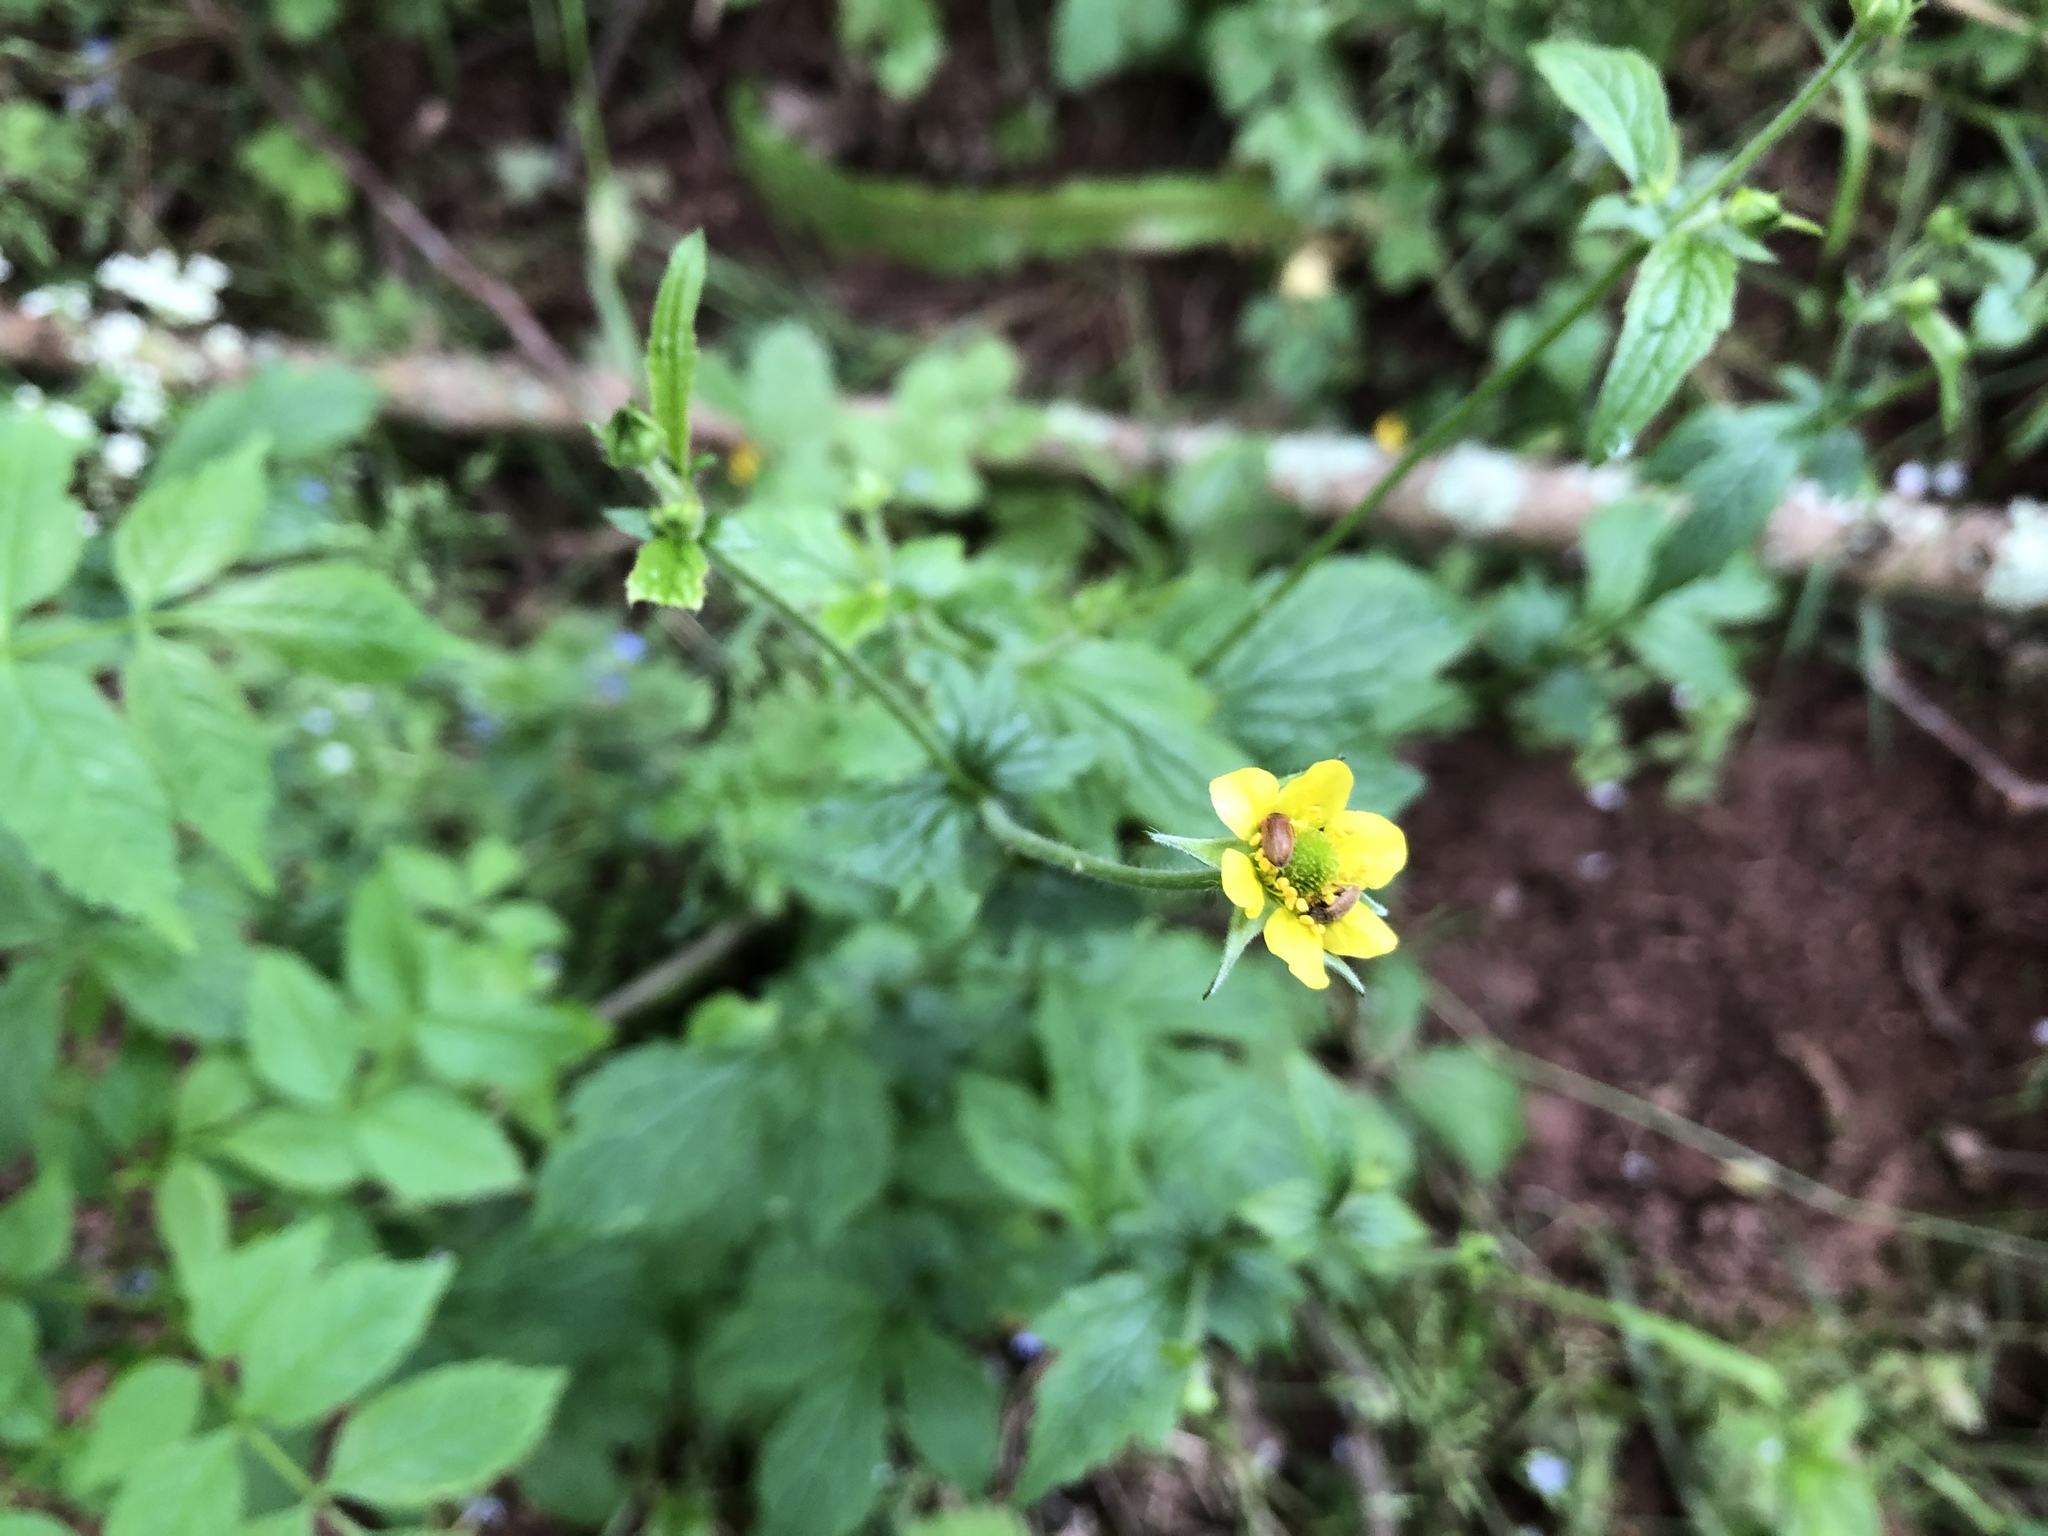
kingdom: Plantae
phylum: Tracheophyta
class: Magnoliopsida
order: Rosales
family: Rosaceae
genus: Geum
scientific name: Geum urbanum
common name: Wood avens
